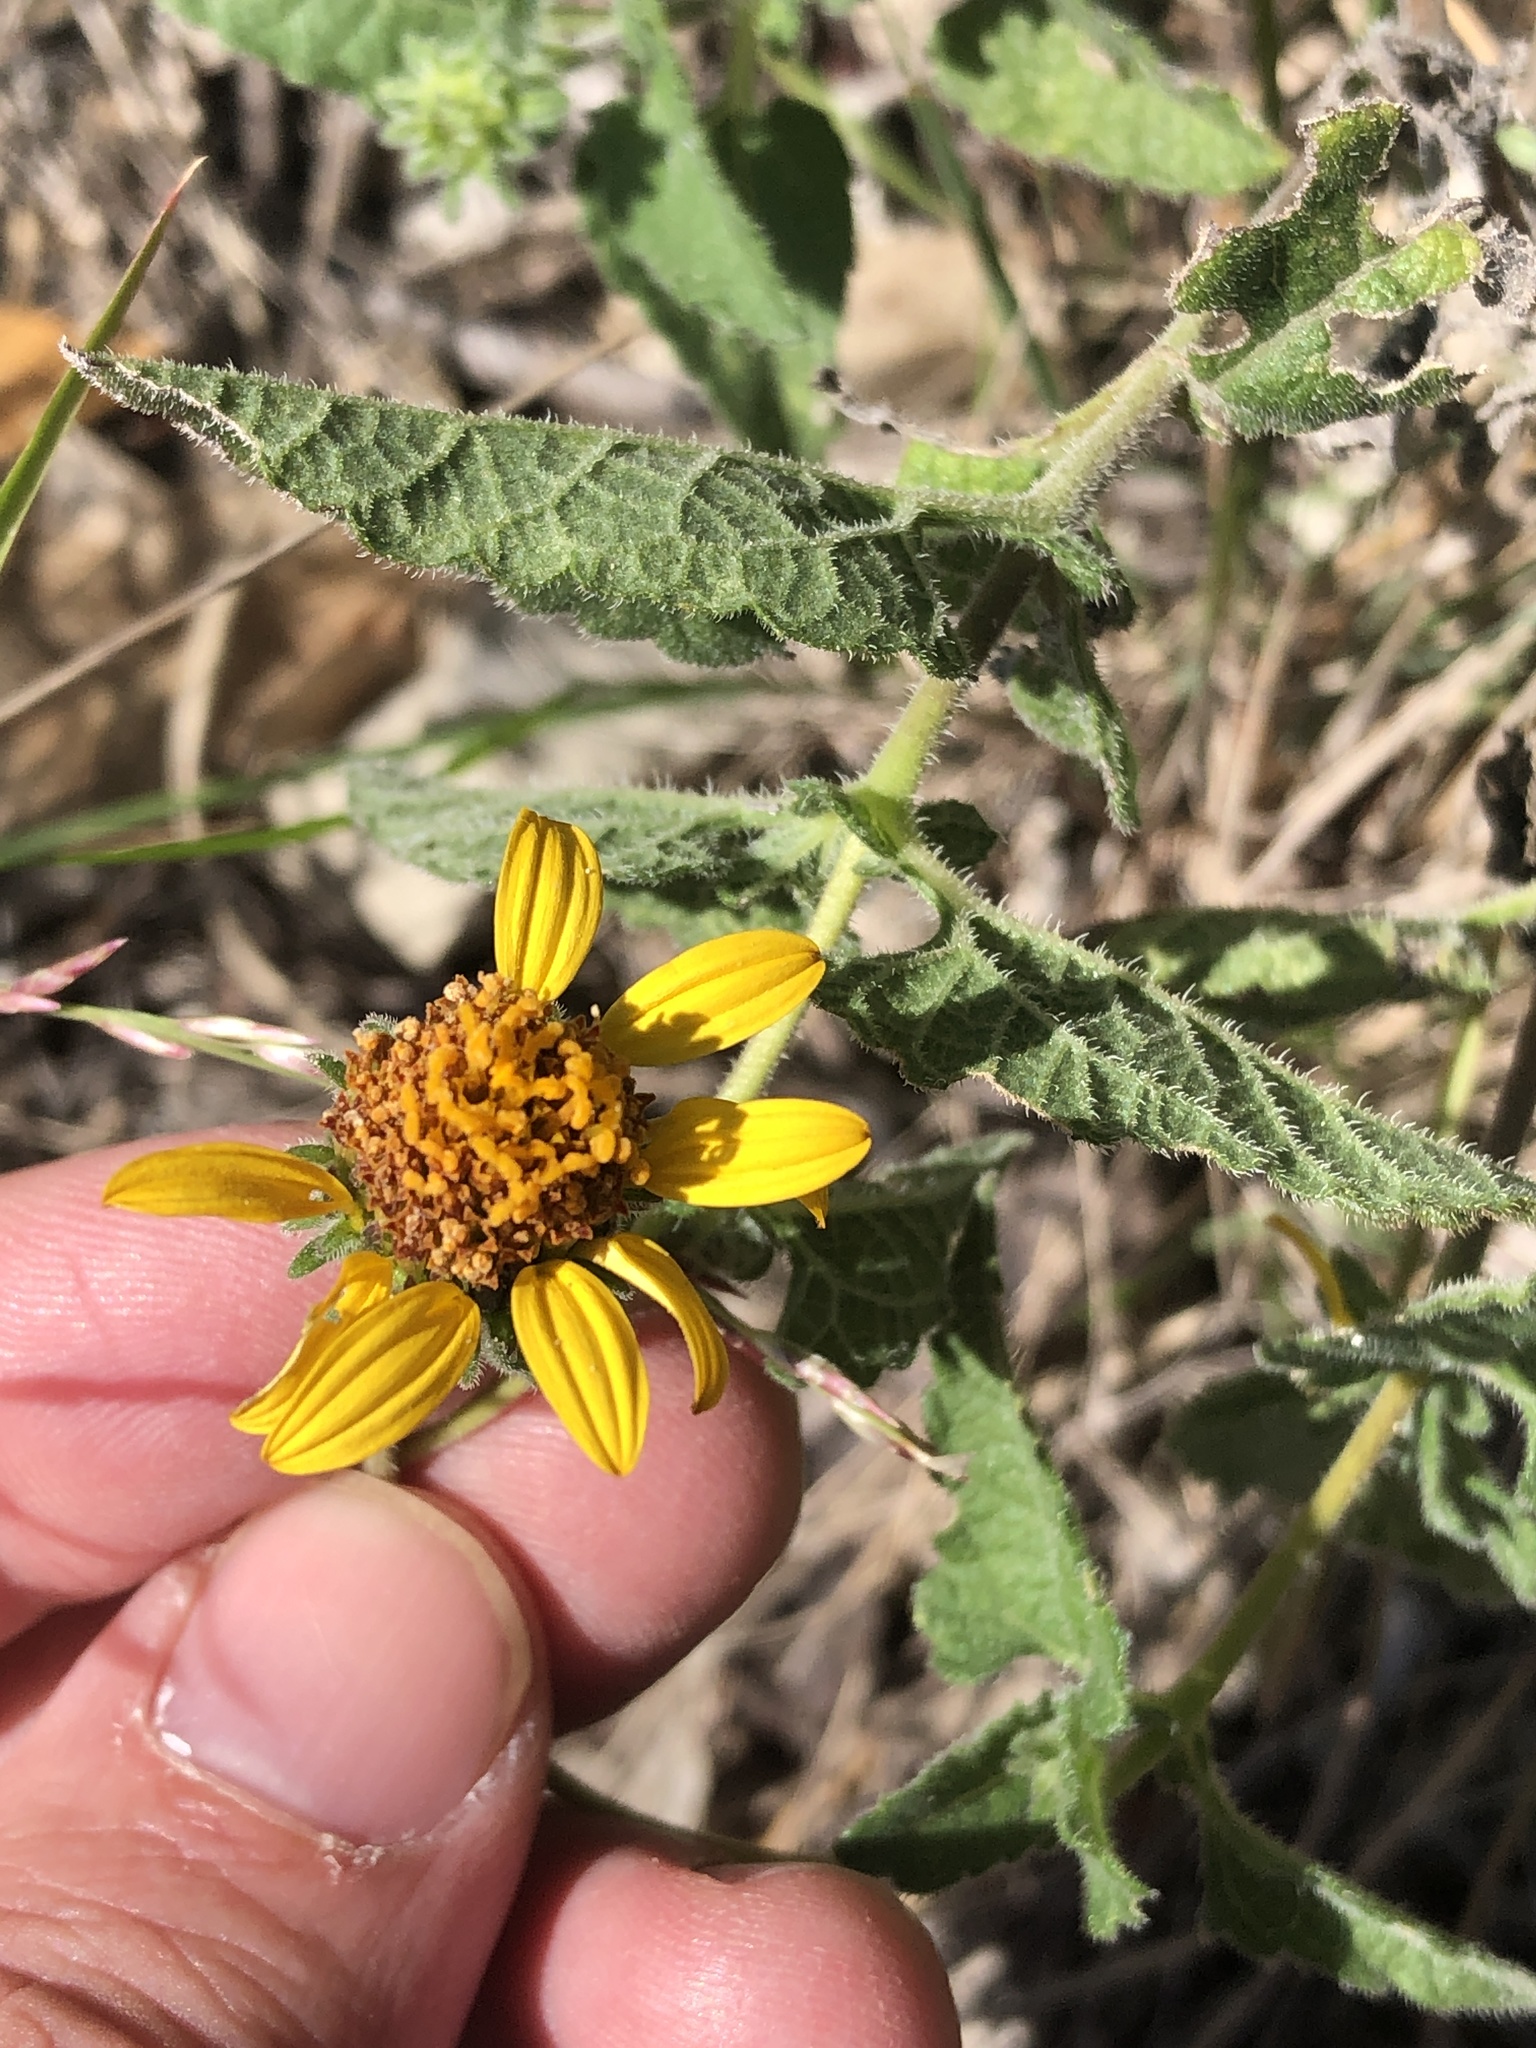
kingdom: Plantae
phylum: Tracheophyta
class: Magnoliopsida
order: Asterales
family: Asteraceae
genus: Simsia
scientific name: Simsia calva
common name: Awnless bush-sunflower
